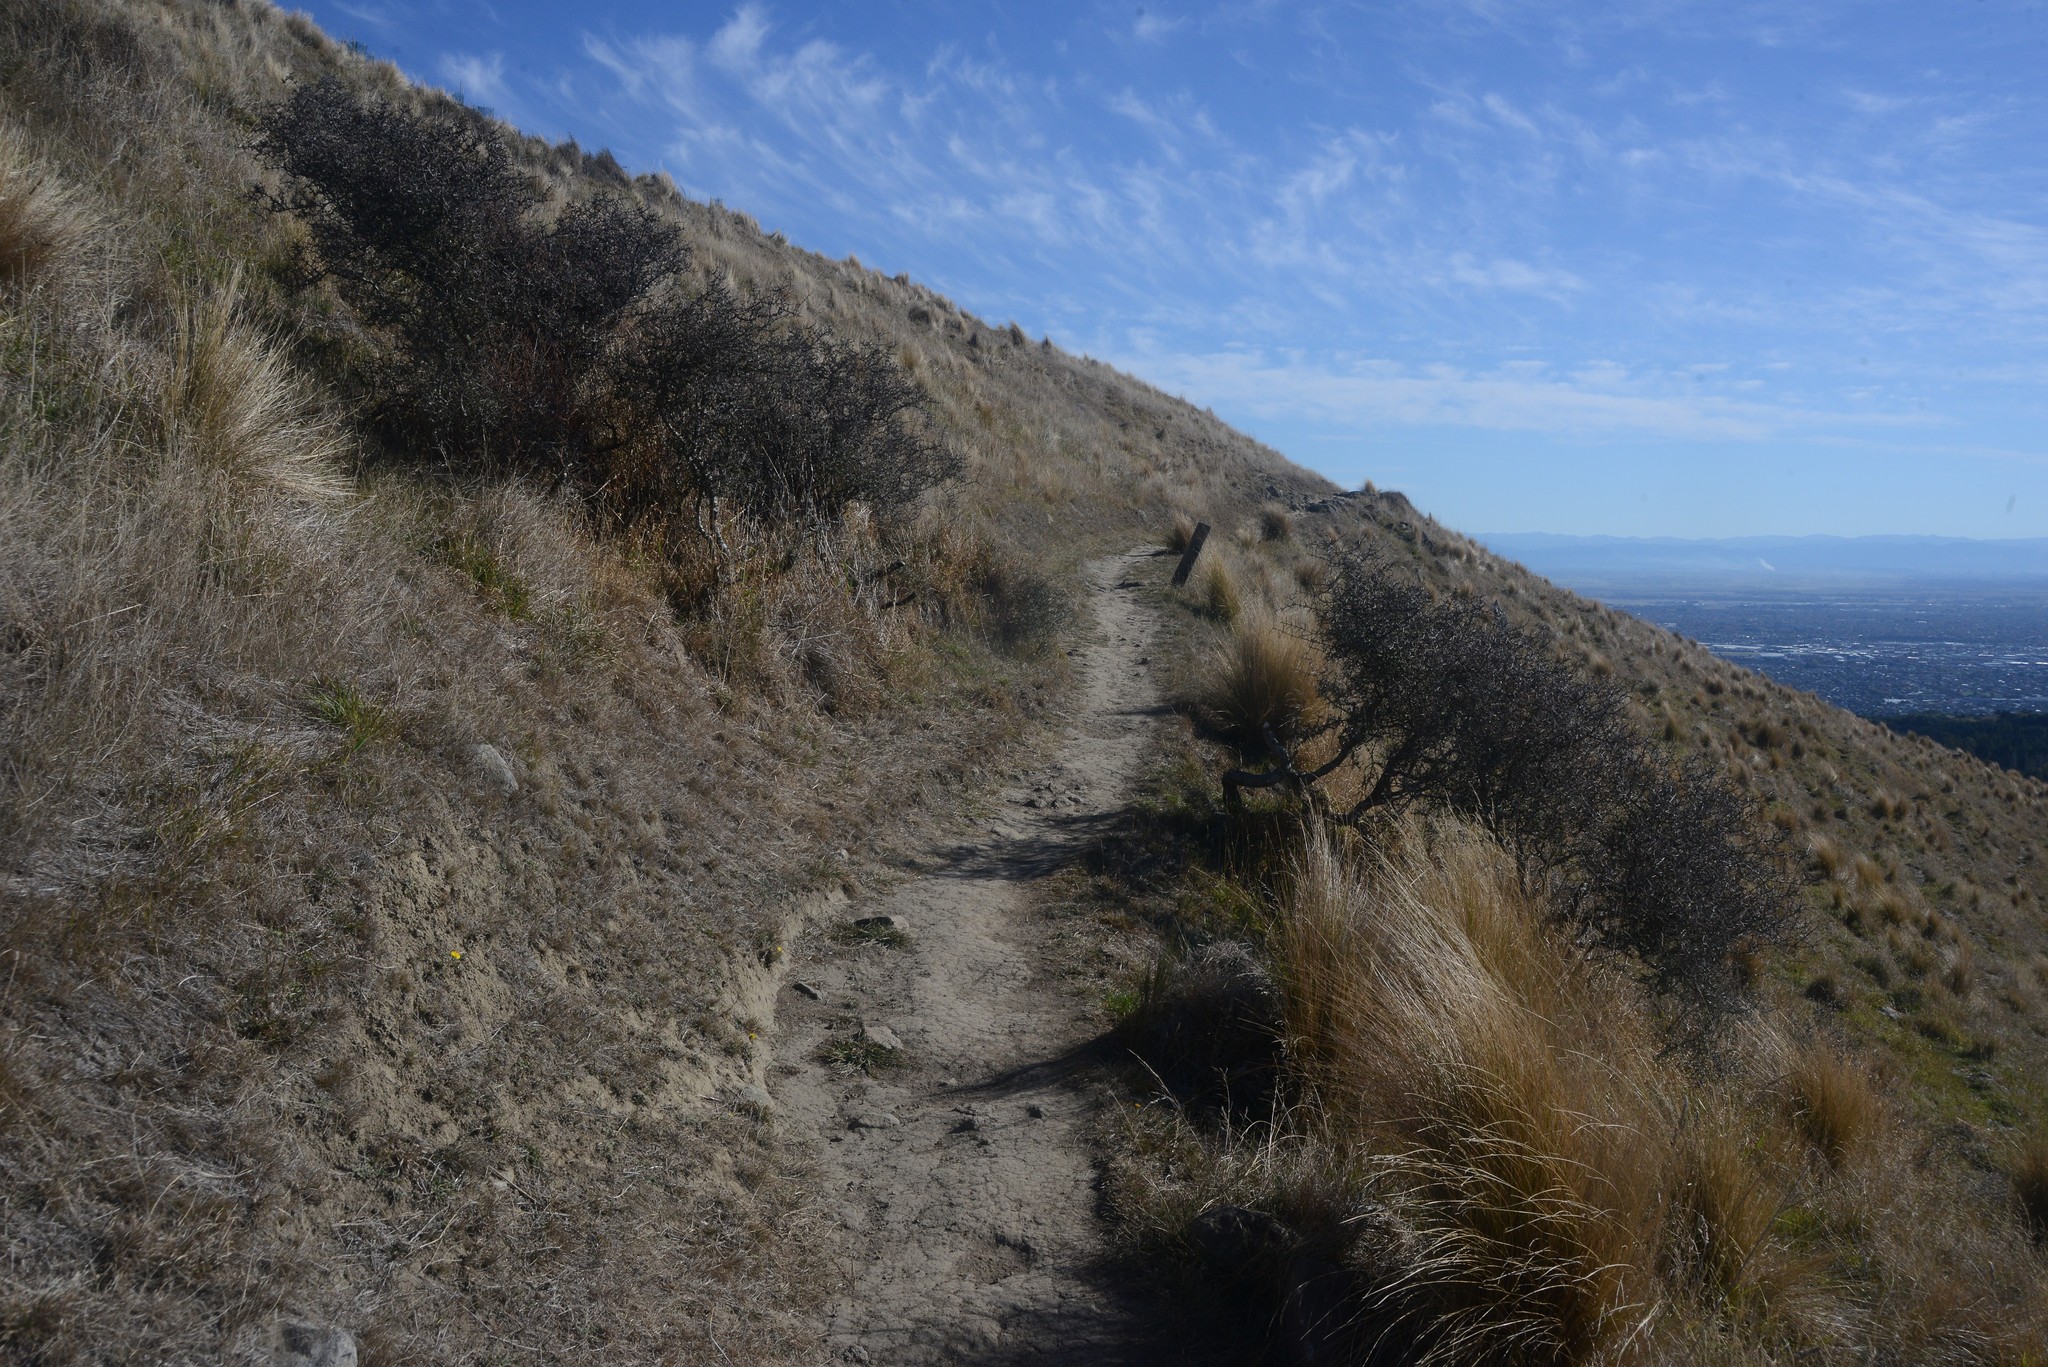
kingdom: Plantae
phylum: Tracheophyta
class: Magnoliopsida
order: Rosales
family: Rhamnaceae
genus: Discaria
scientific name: Discaria toumatou
